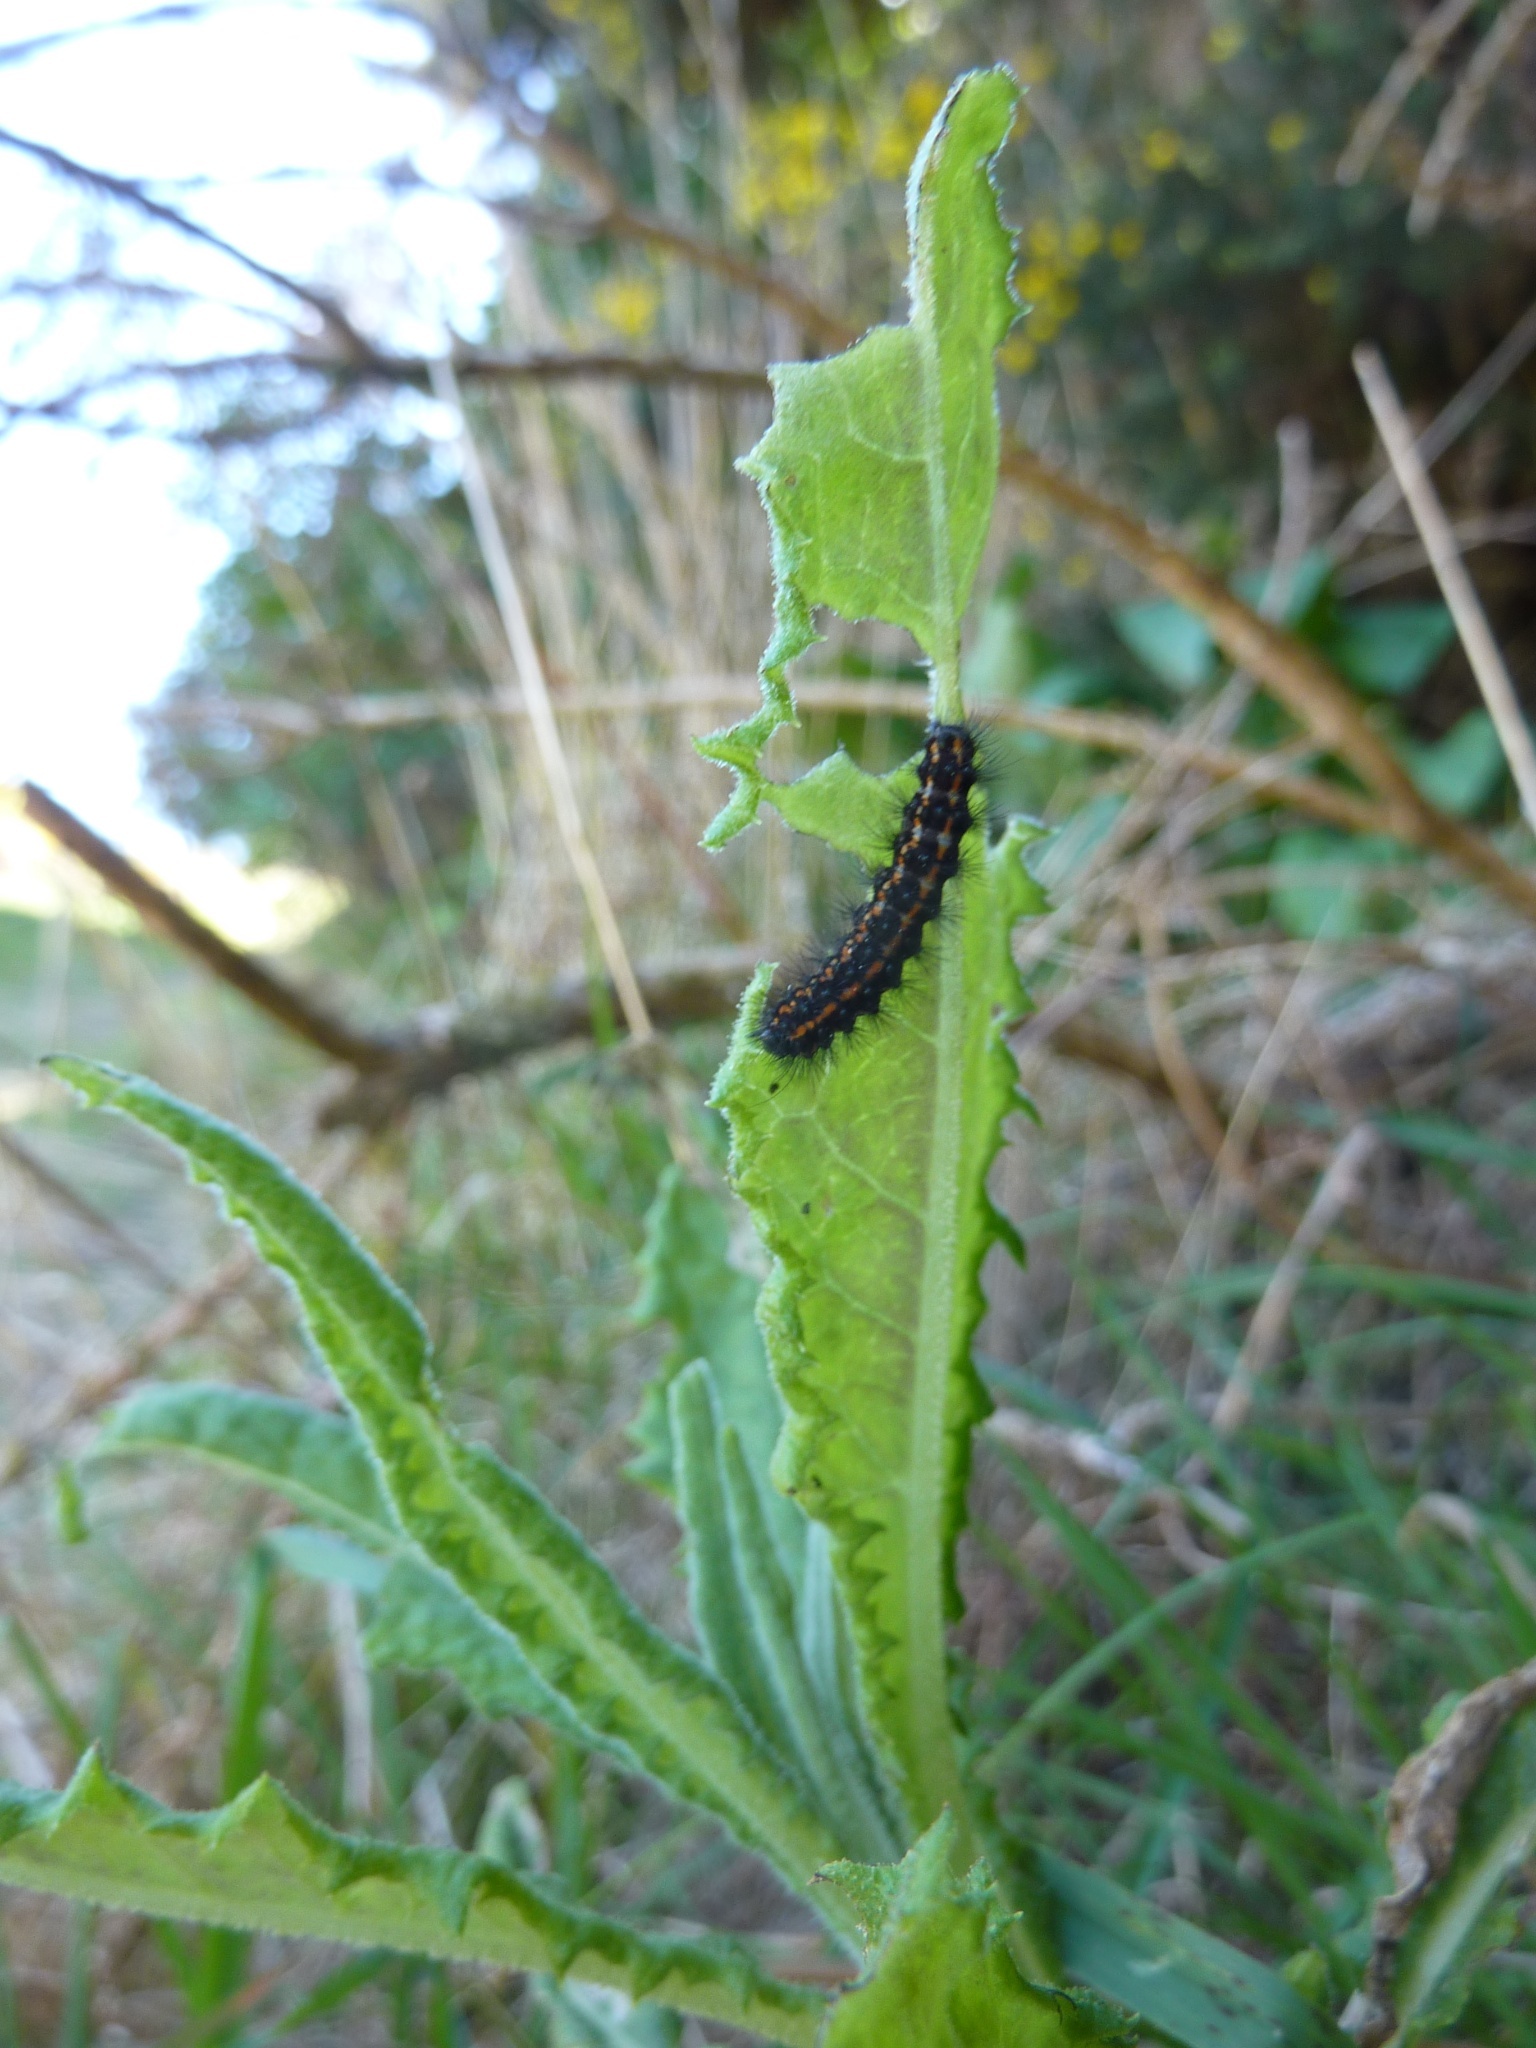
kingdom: Animalia
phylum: Arthropoda
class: Insecta
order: Lepidoptera
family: Erebidae
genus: Nyctemera
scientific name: Nyctemera annulatum
